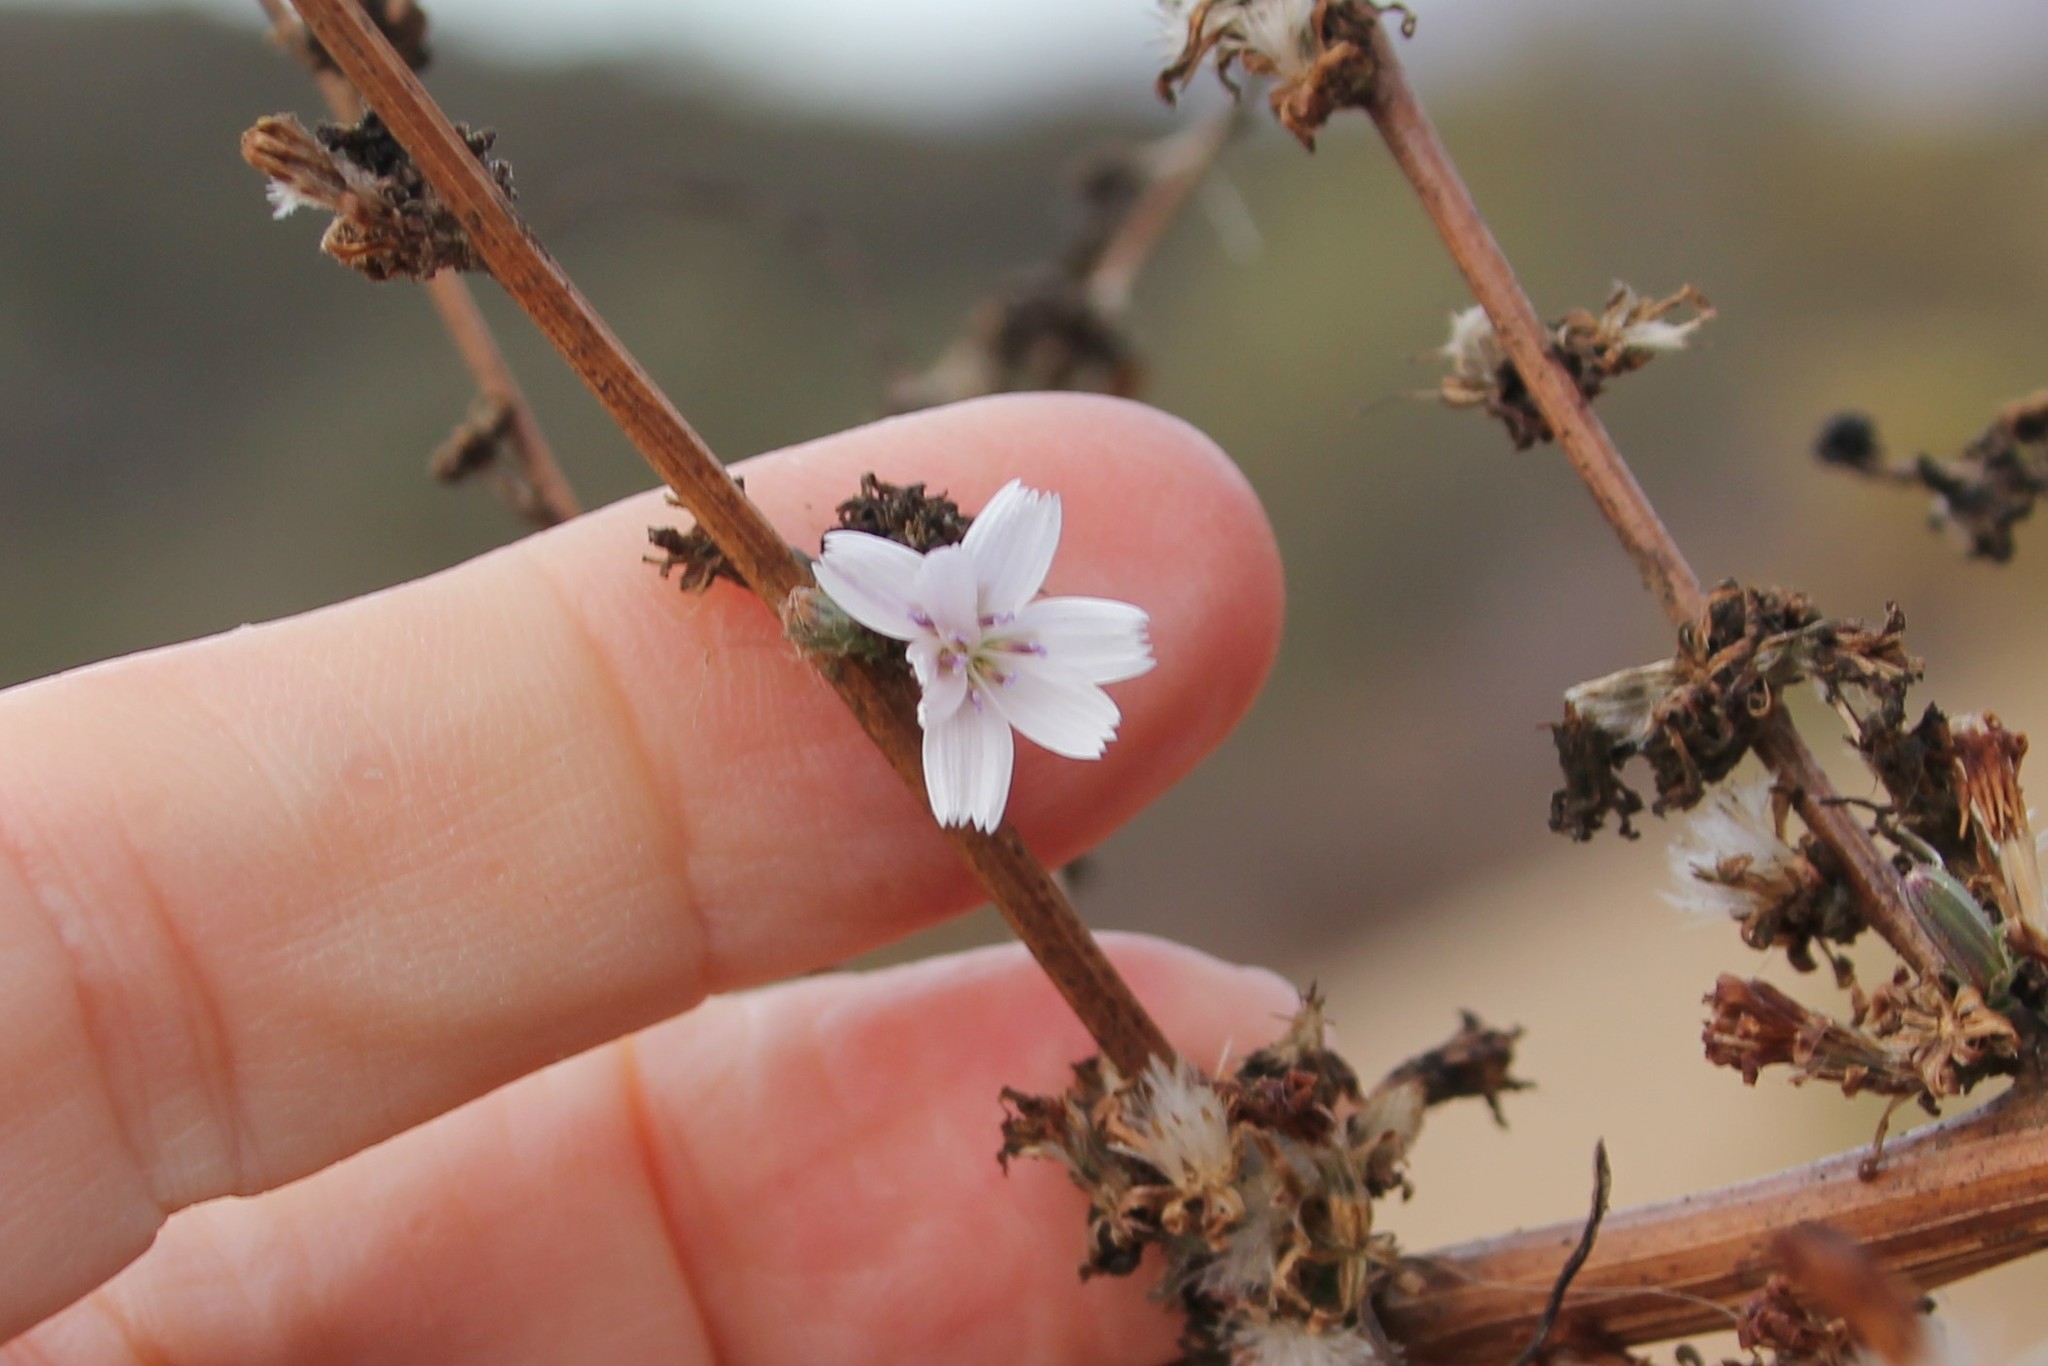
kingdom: Plantae
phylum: Tracheophyta
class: Magnoliopsida
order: Asterales
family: Asteraceae
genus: Stephanomeria
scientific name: Stephanomeria diegensis
